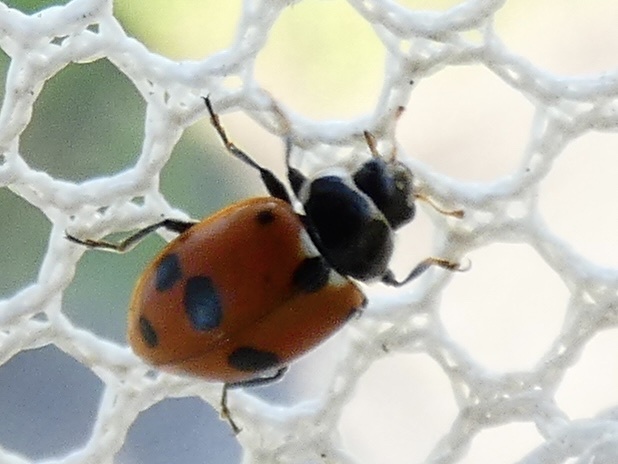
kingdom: Animalia
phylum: Arthropoda
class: Insecta
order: Coleoptera
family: Coccinellidae
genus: Hippodamia
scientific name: Hippodamia variegata
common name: Ladybird beetle
